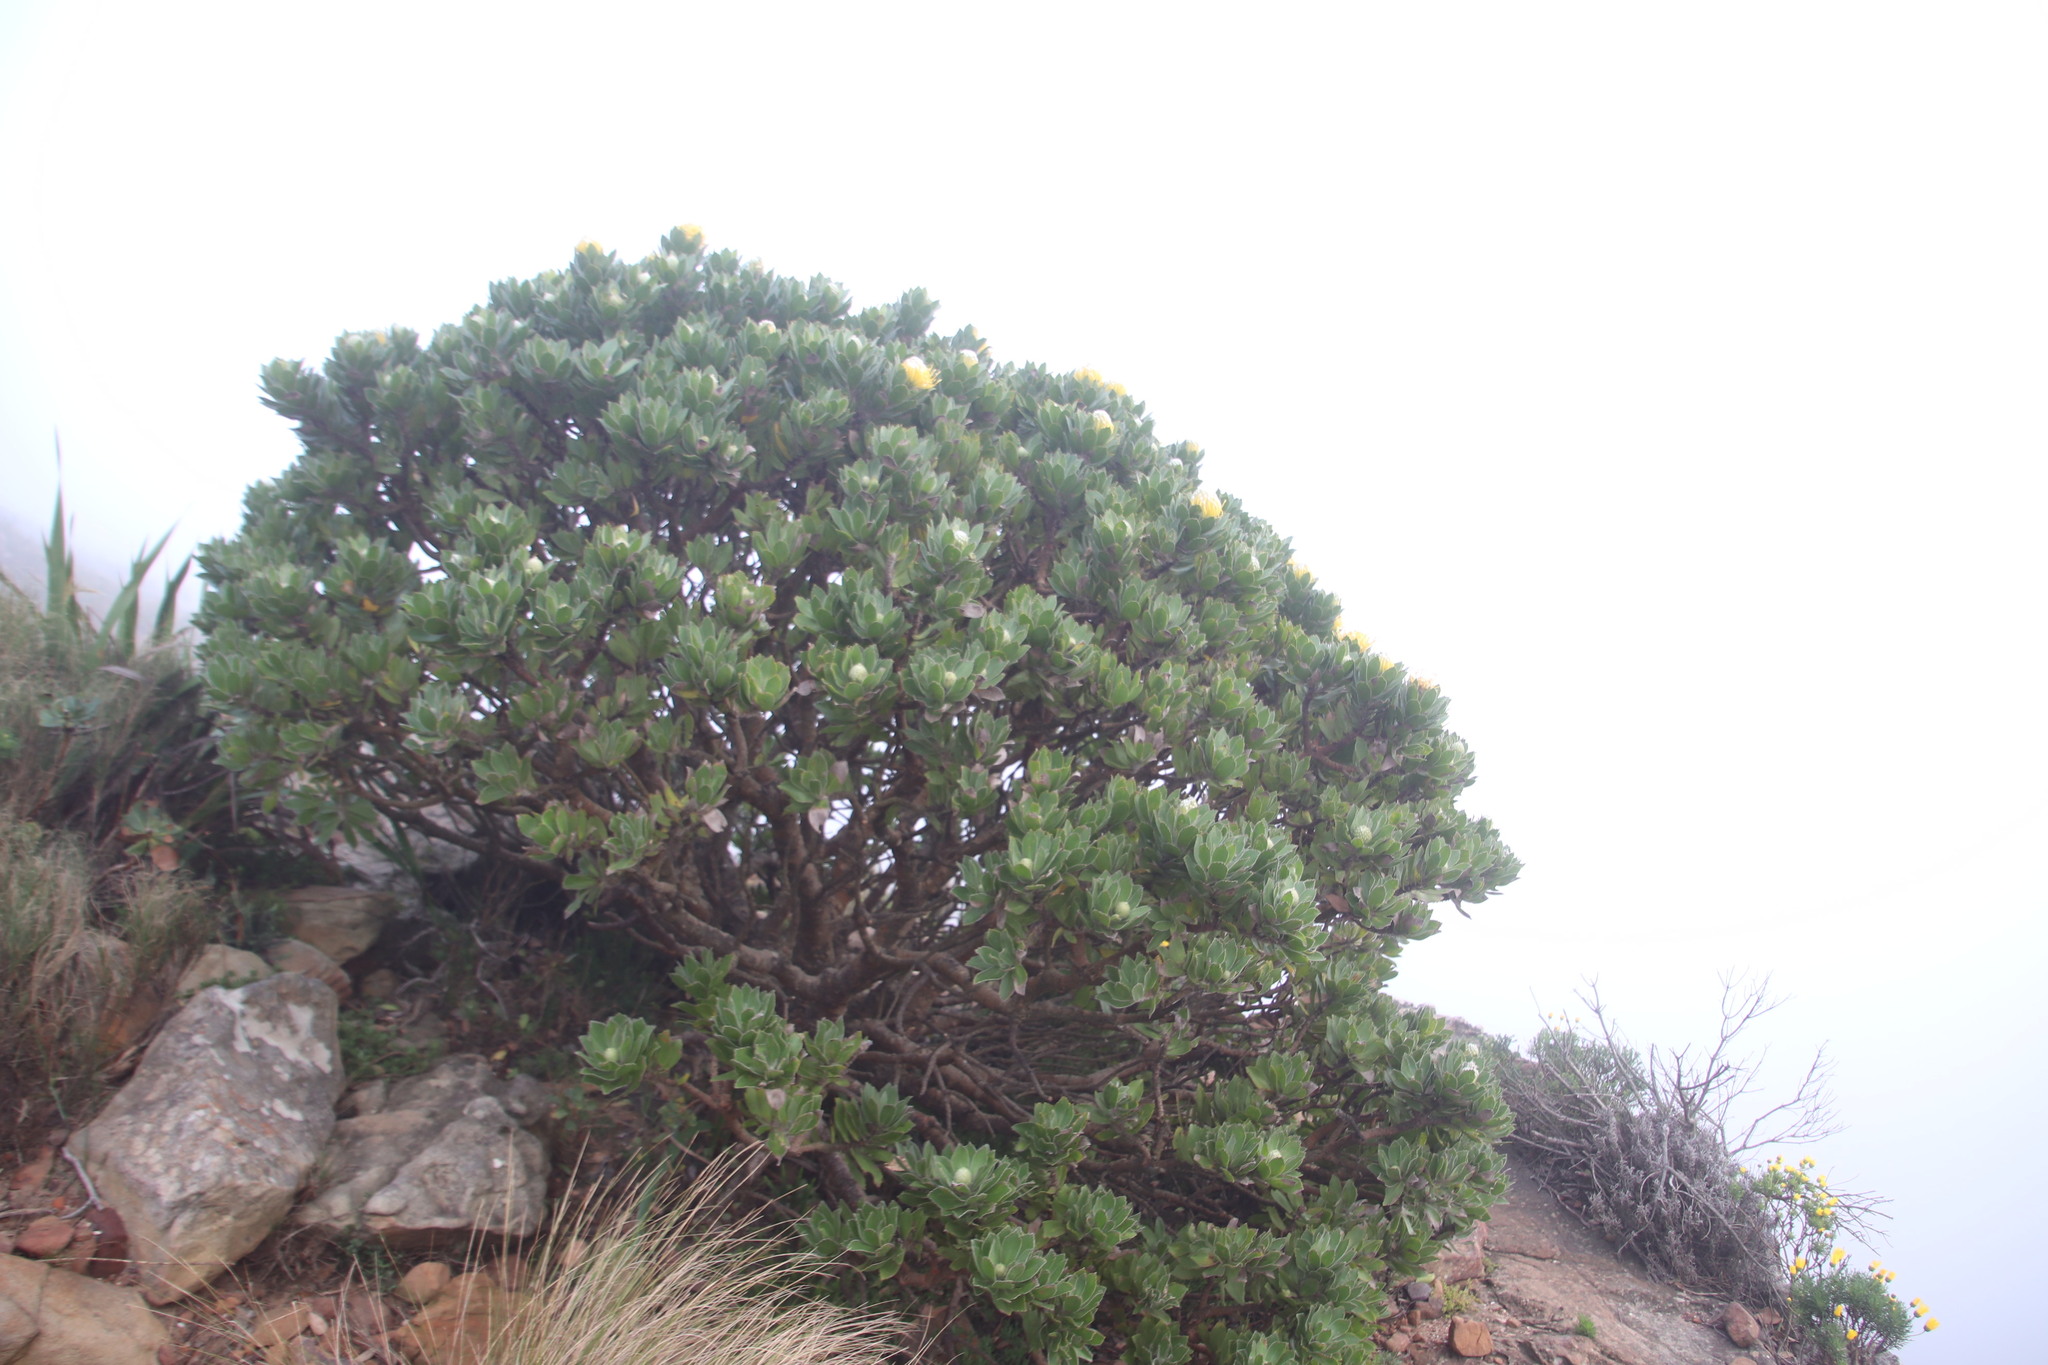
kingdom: Plantae
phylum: Tracheophyta
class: Magnoliopsida
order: Proteales
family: Proteaceae
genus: Leucospermum
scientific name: Leucospermum conocarpodendron
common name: Tree pincushion
